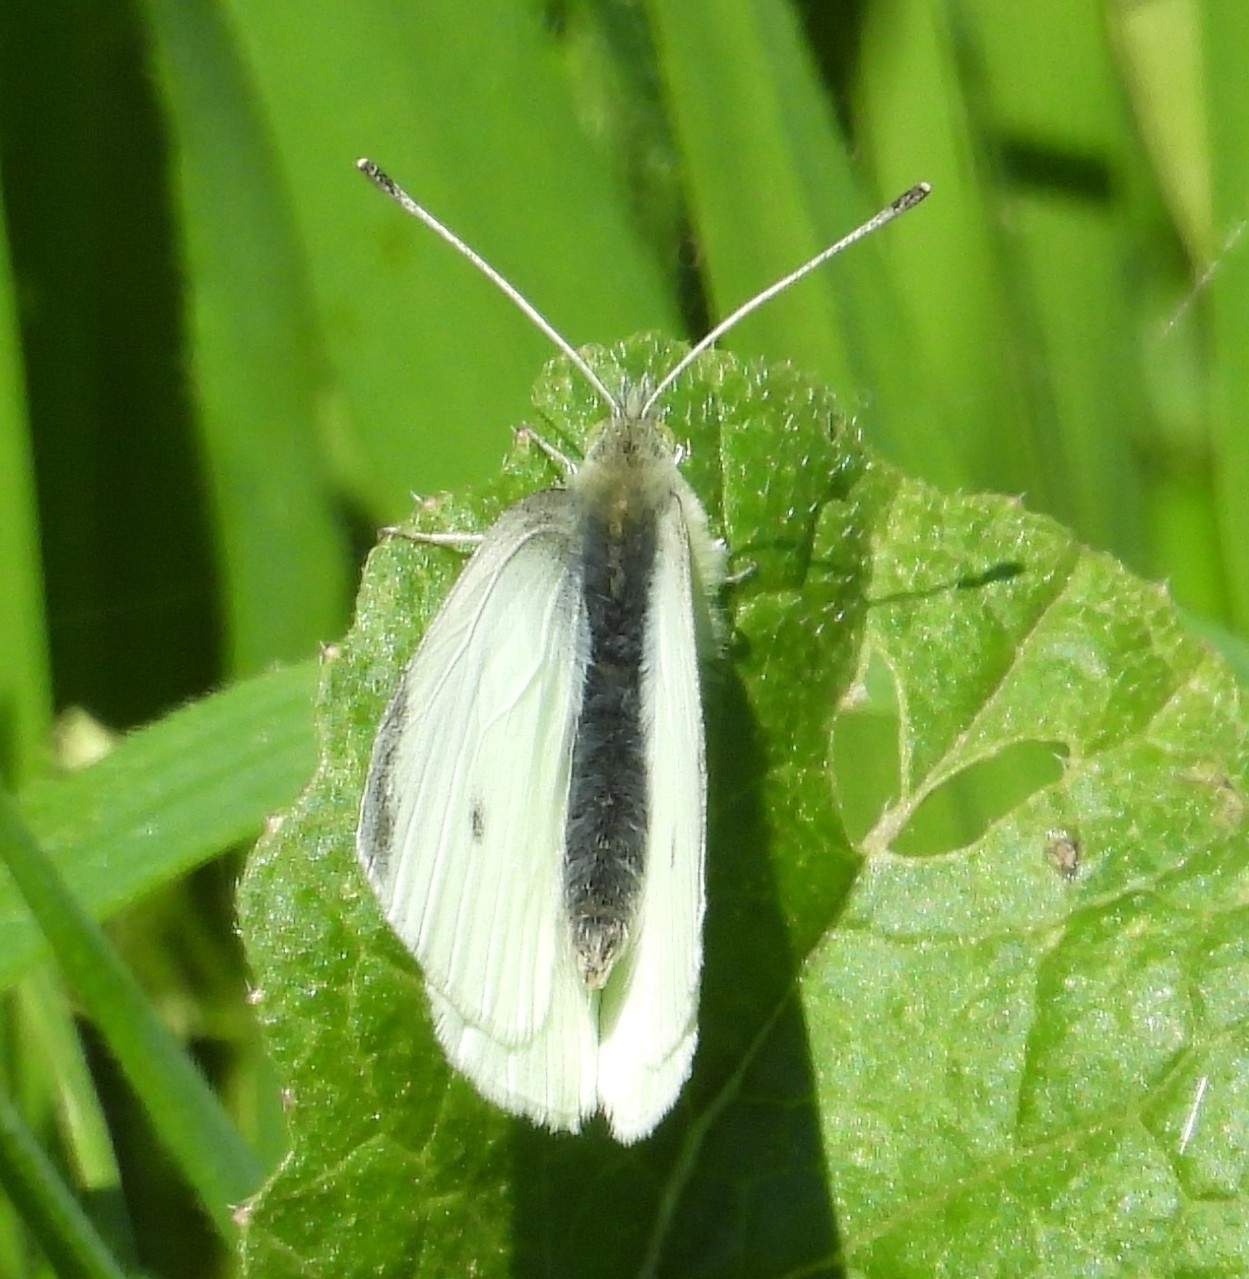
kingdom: Animalia
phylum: Arthropoda
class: Insecta
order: Lepidoptera
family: Pieridae
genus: Pieris
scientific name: Pieris rapae
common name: Small white
